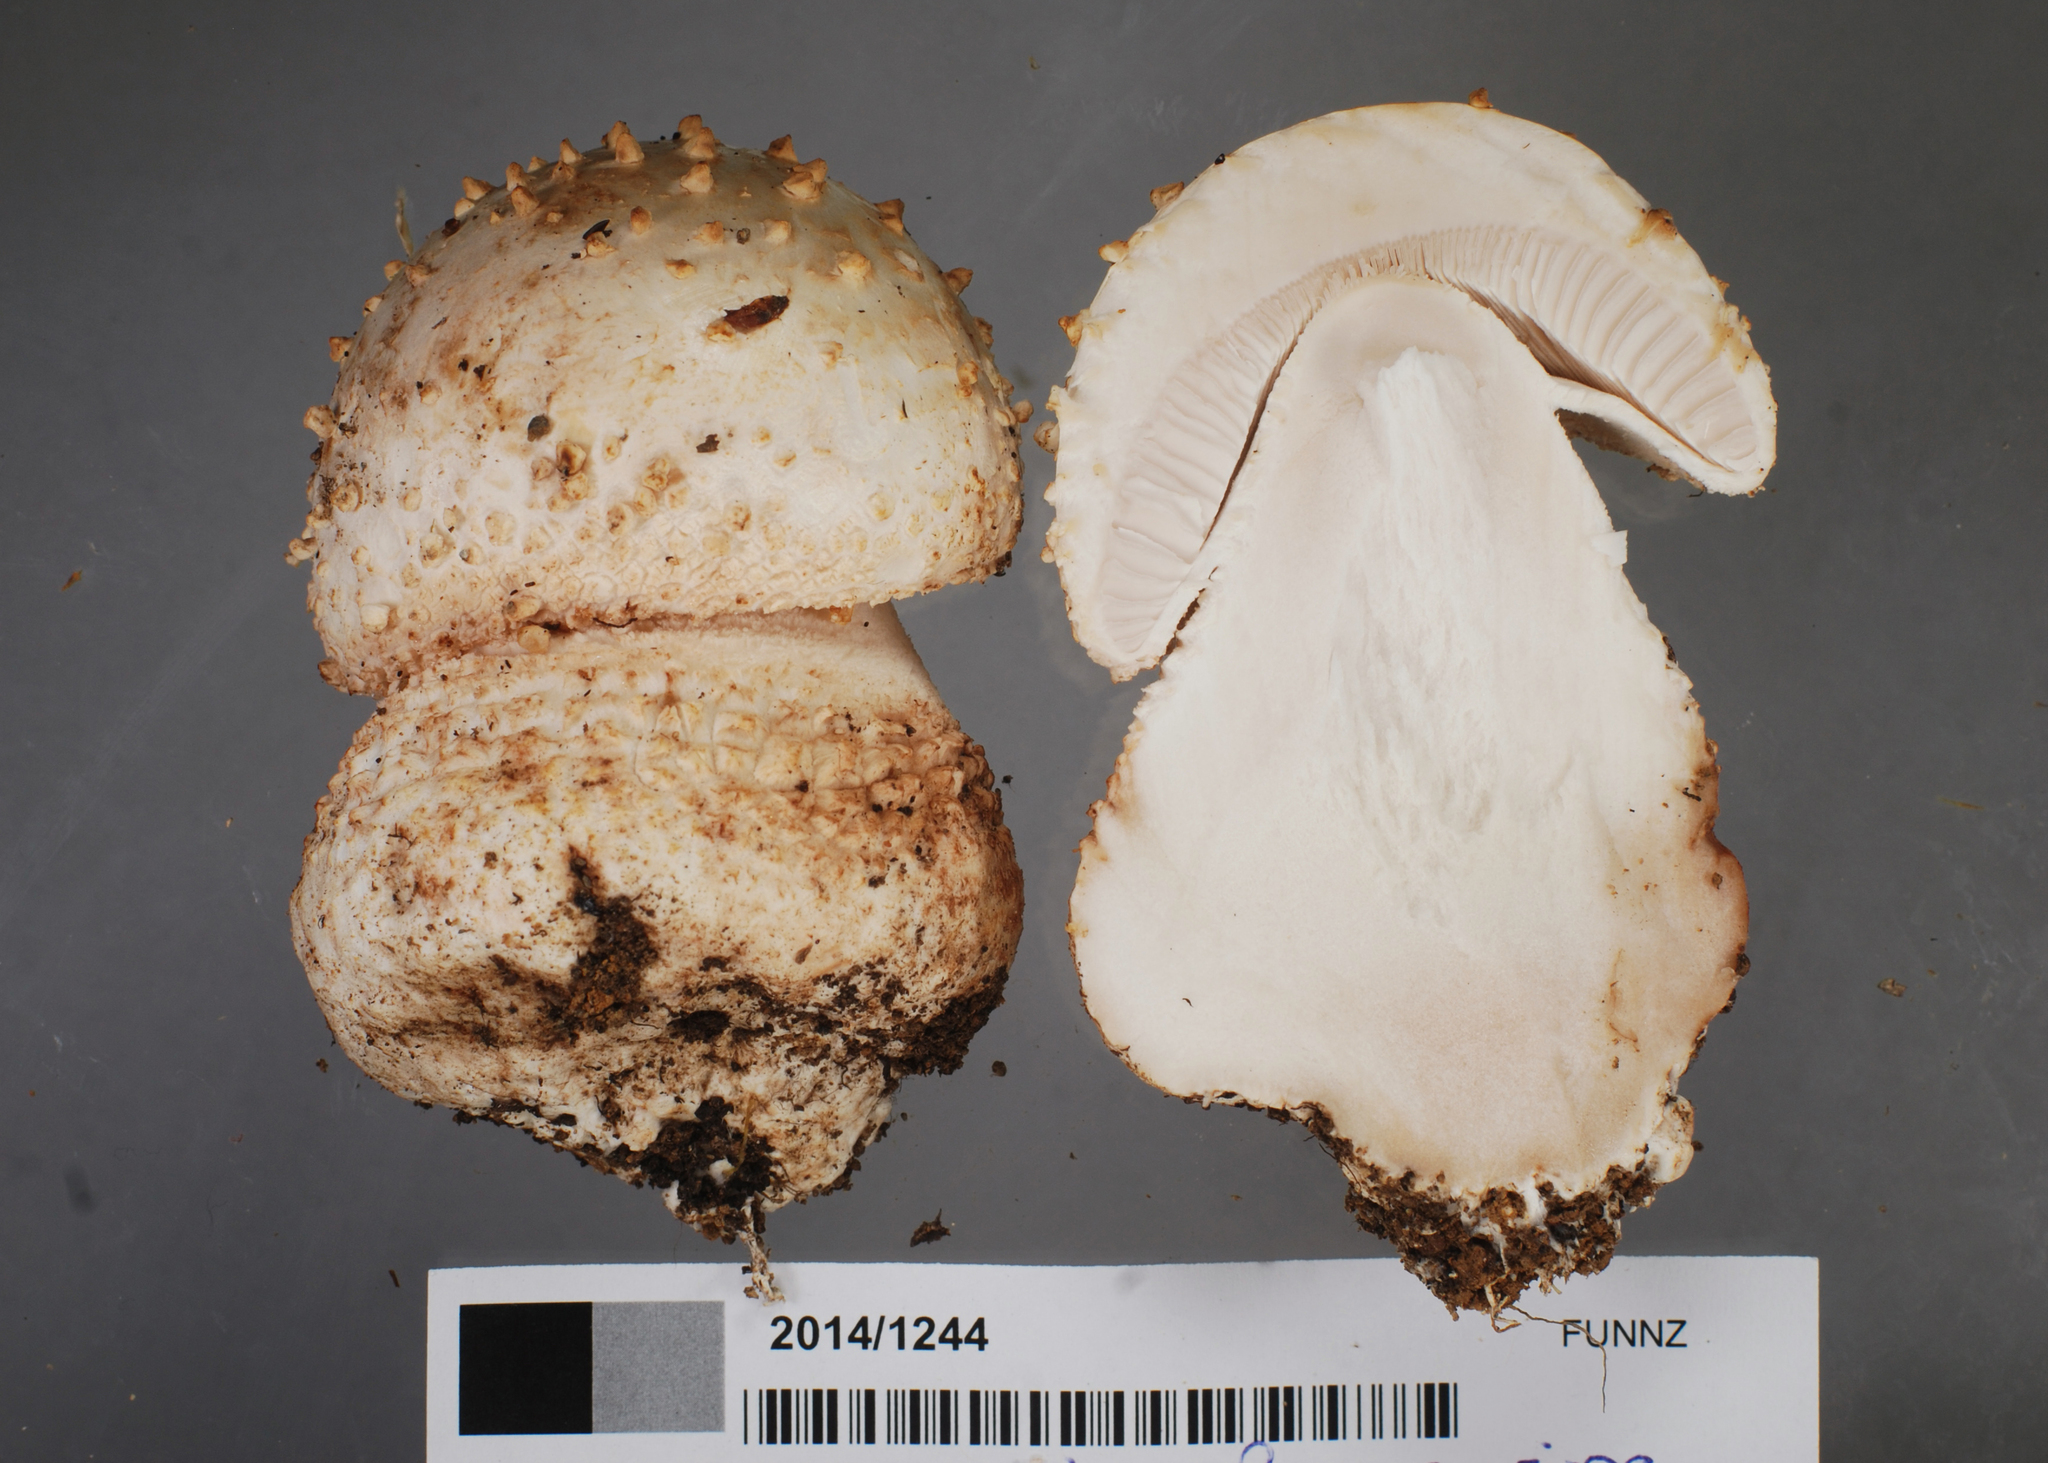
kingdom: Fungi
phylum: Basidiomycota
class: Agaricomycetes
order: Agaricales
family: Amanitaceae
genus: Amanita
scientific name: Amanita pareparina
